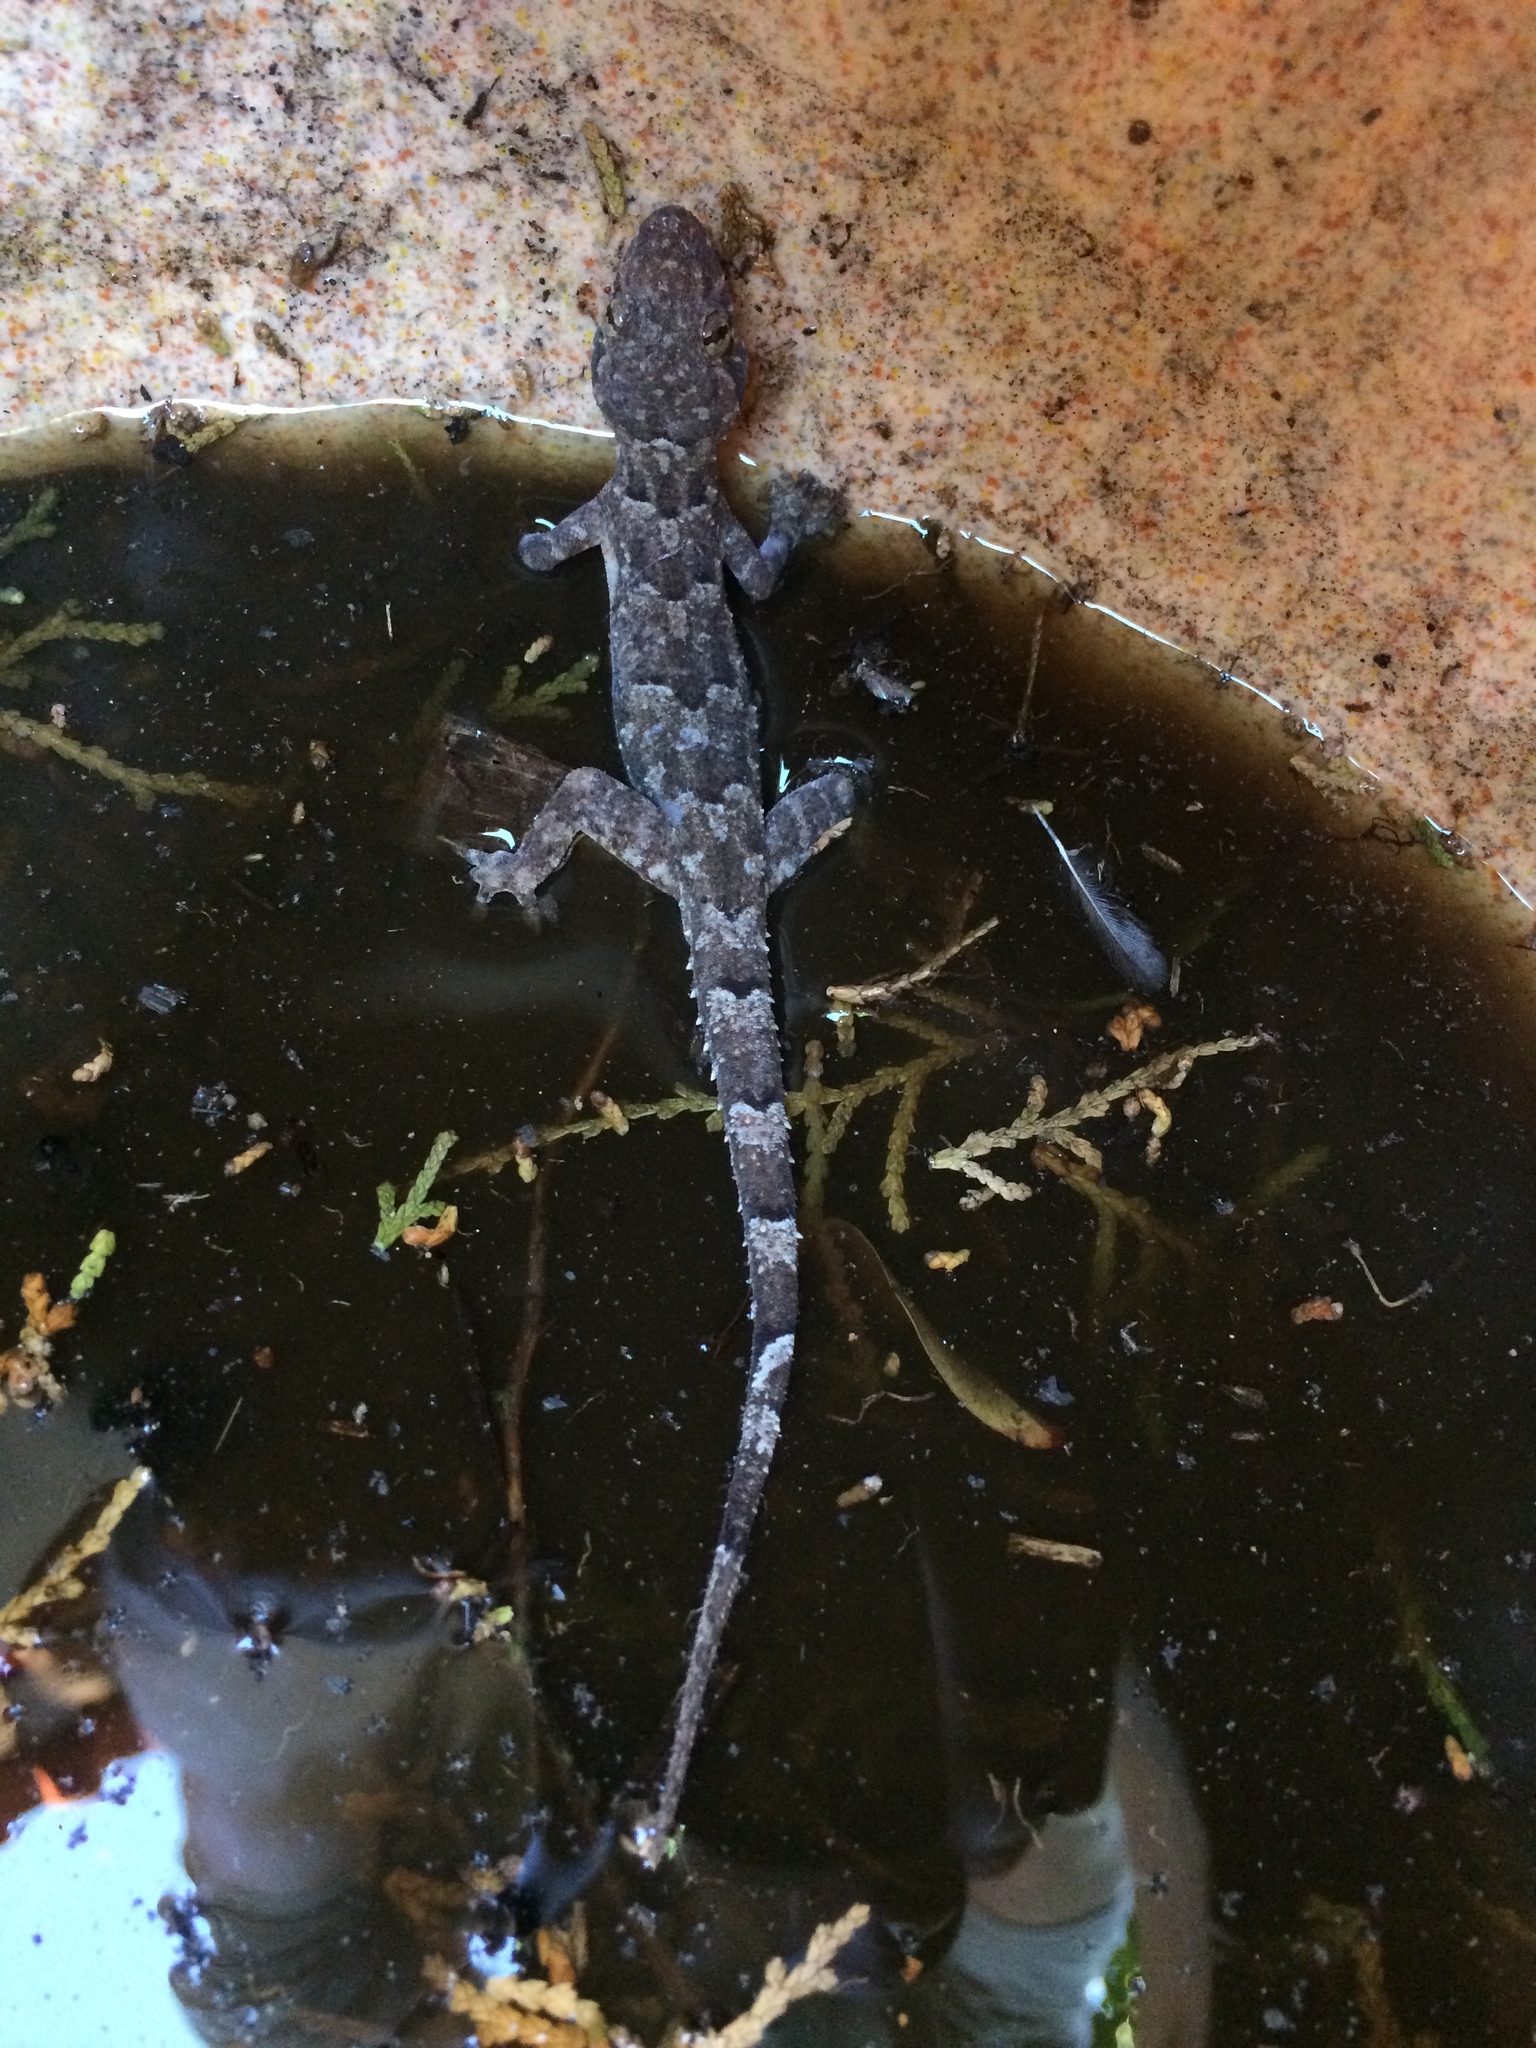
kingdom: Animalia
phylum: Chordata
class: Squamata
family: Gekkonidae
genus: Hemidactylus
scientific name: Hemidactylus mabouia
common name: House gecko
